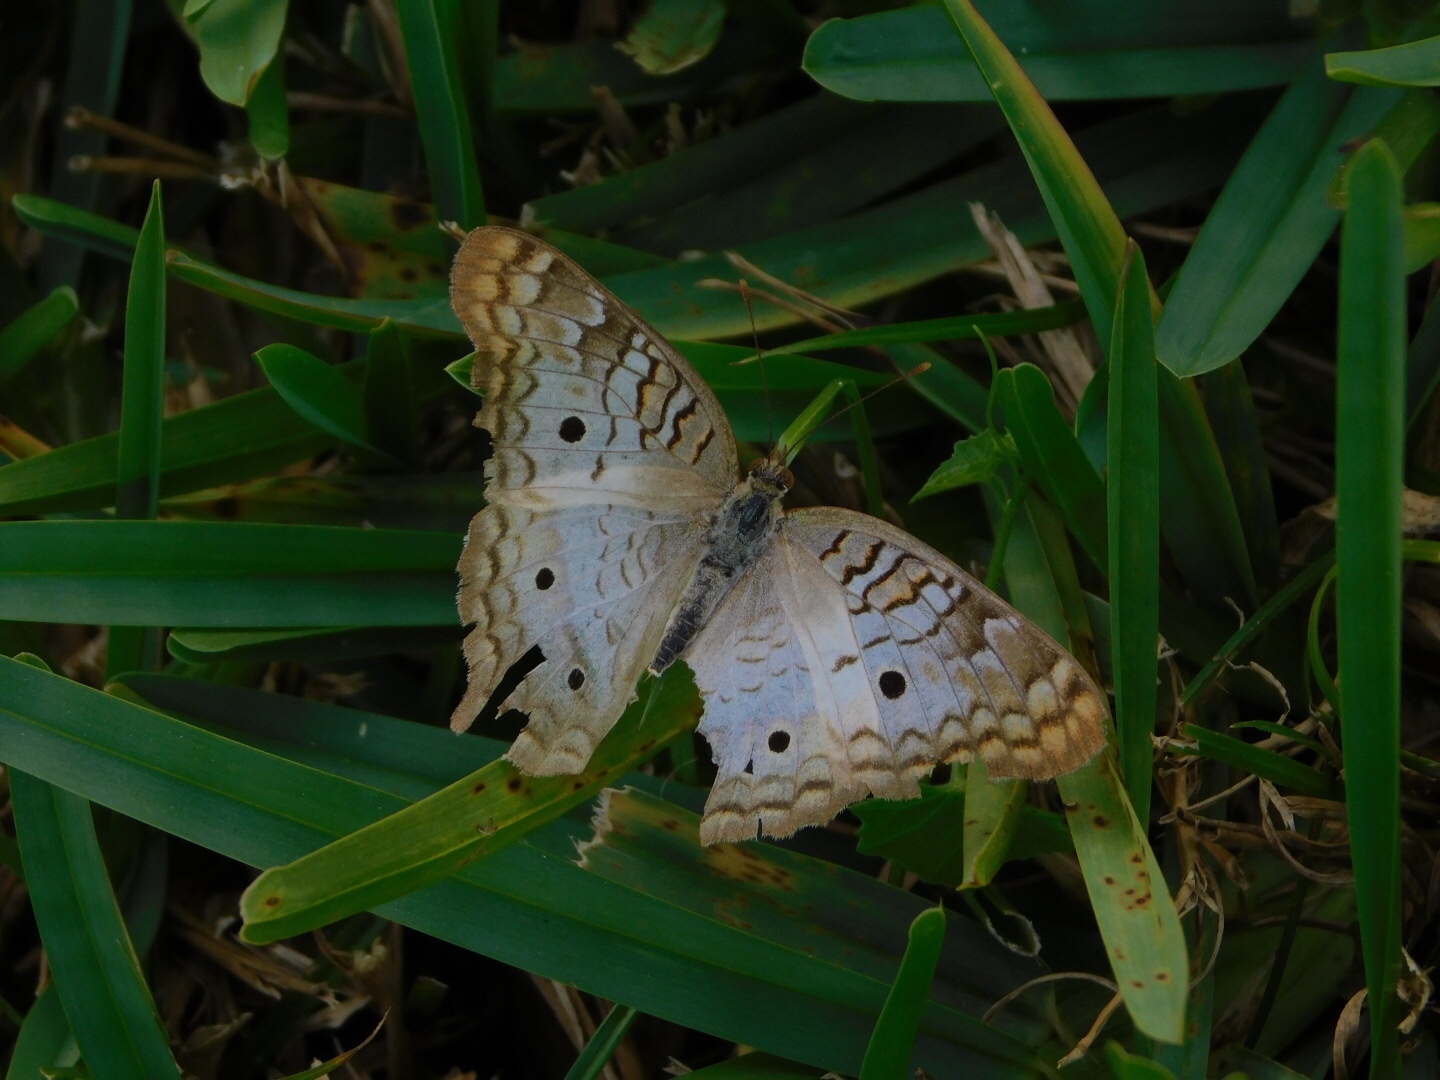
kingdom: Animalia
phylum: Arthropoda
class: Insecta
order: Lepidoptera
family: Nymphalidae
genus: Anartia
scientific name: Anartia jatrophae
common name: White peacock
